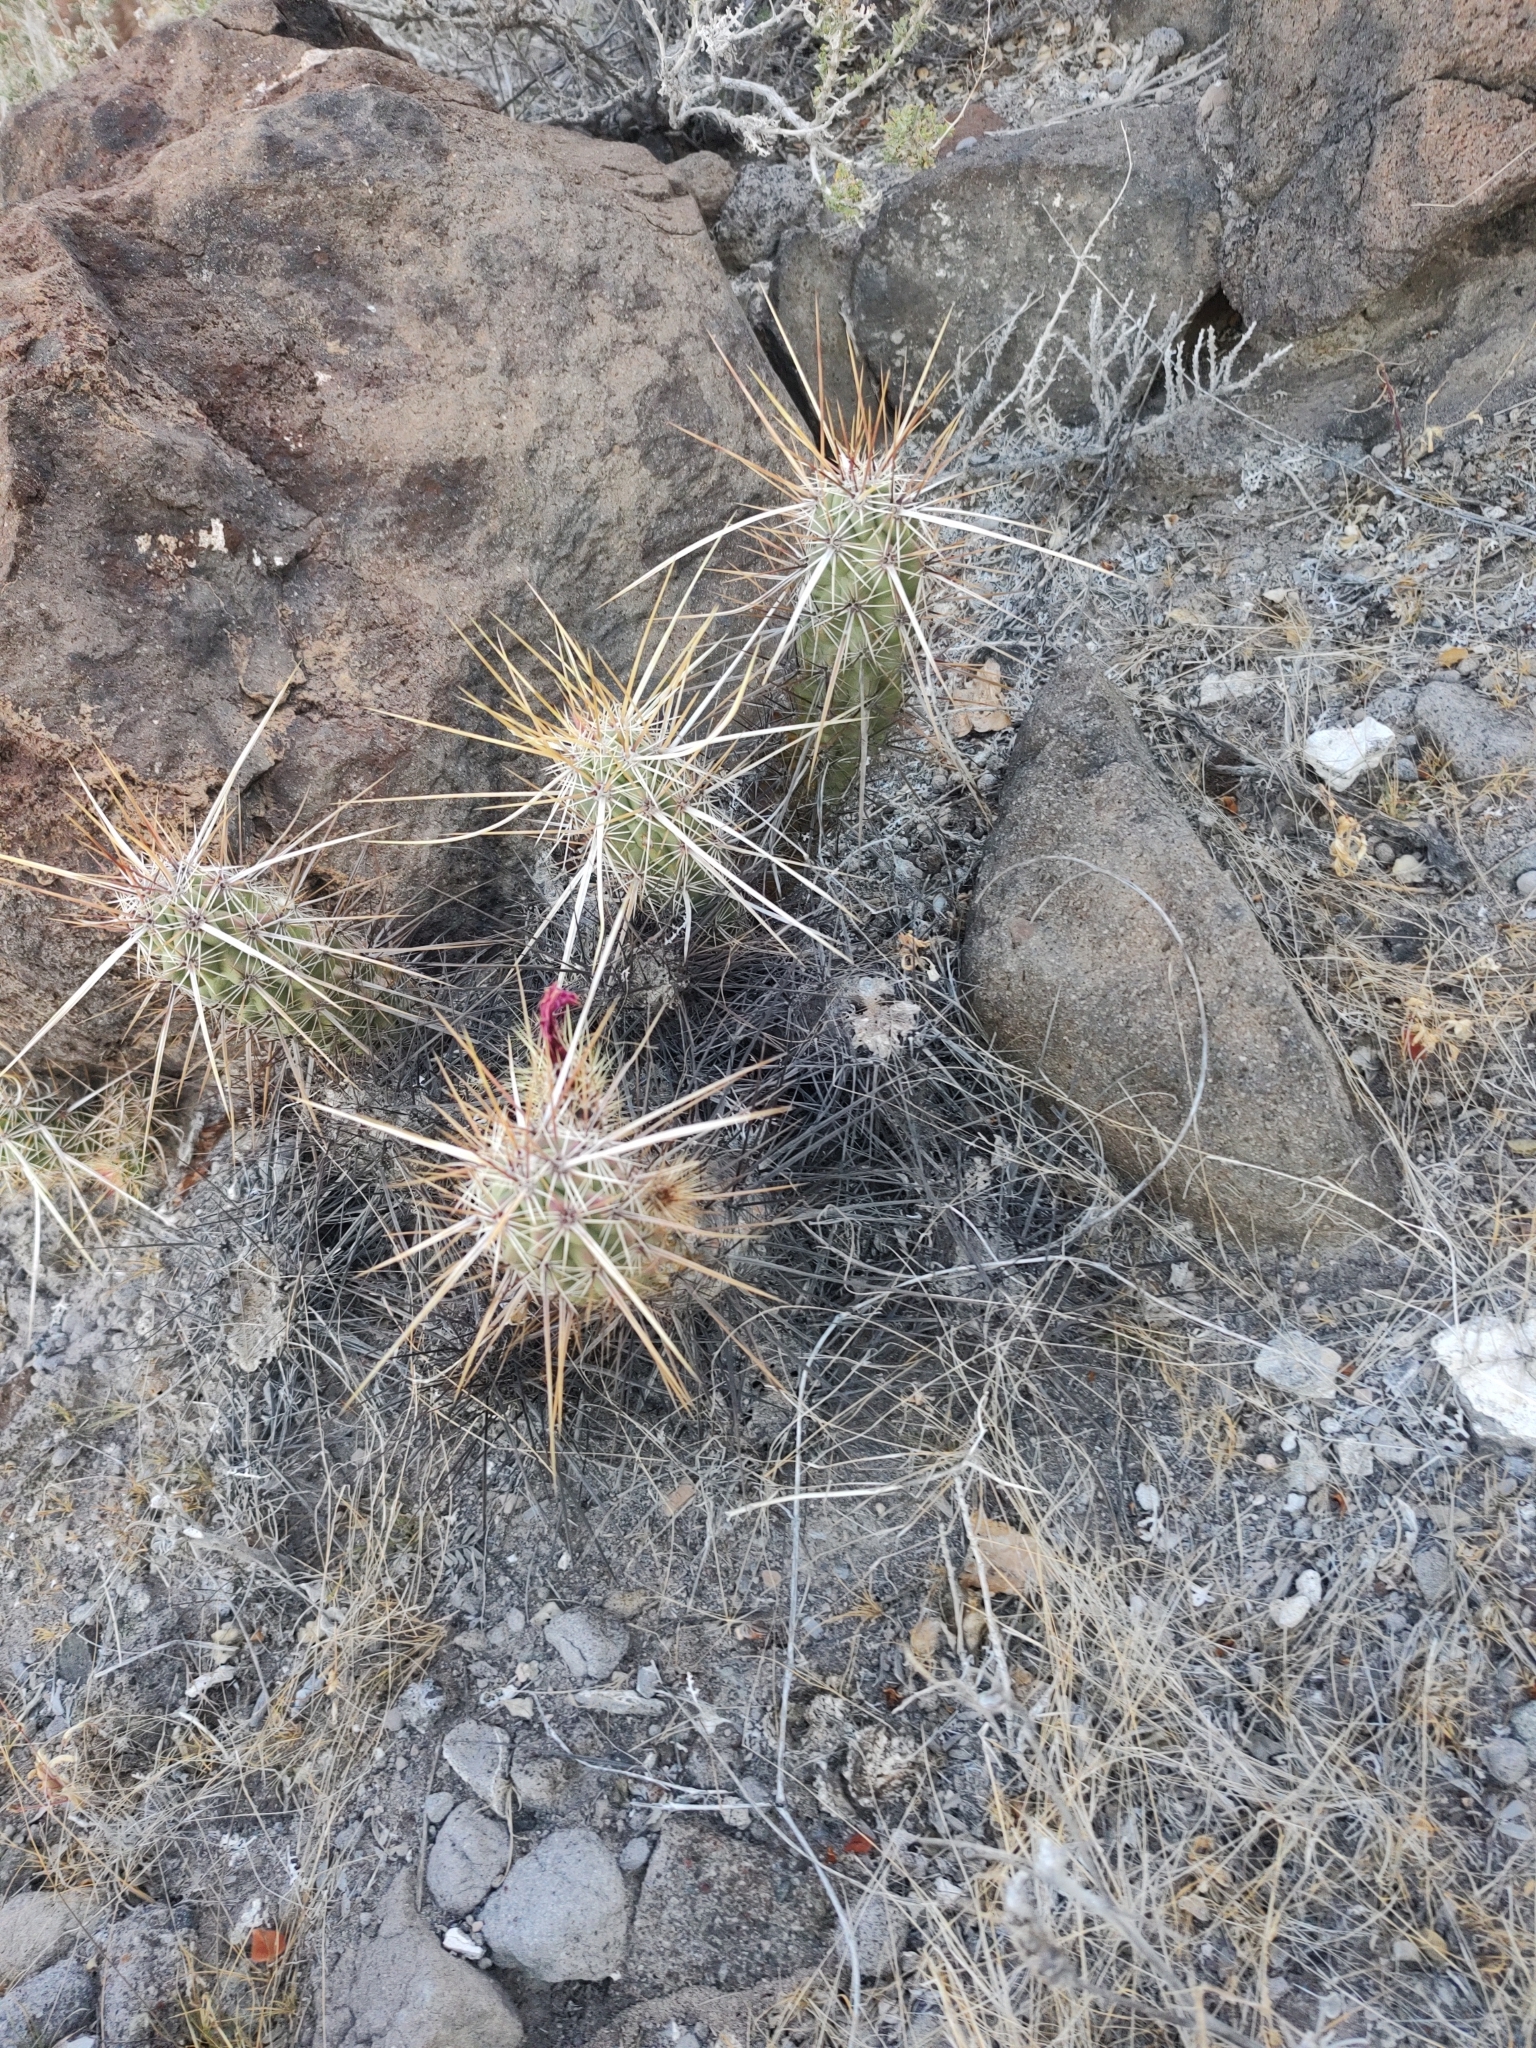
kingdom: Plantae
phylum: Tracheophyta
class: Magnoliopsida
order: Caryophyllales
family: Cactaceae
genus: Echinocereus
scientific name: Echinocereus brandegeei
